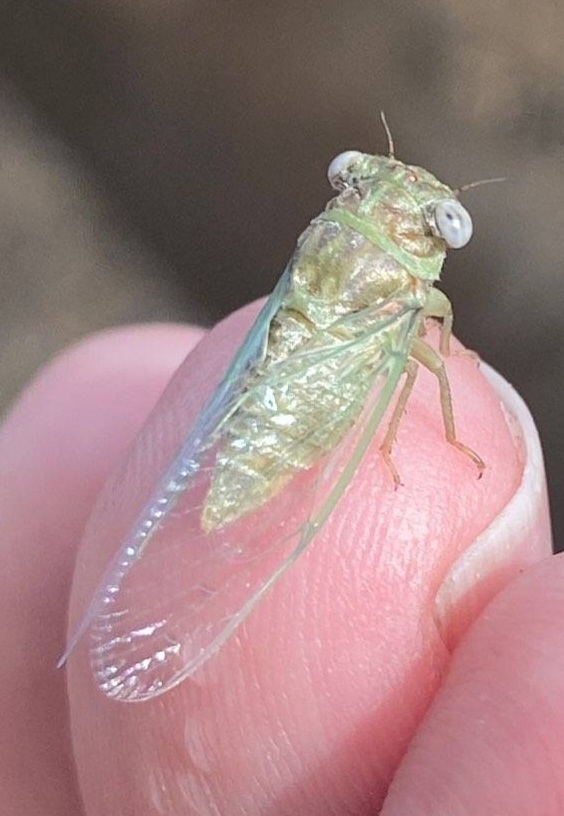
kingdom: Animalia
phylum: Arthropoda
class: Insecta
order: Hemiptera
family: Cicadidae
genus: Pacarina
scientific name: Pacarina puella
